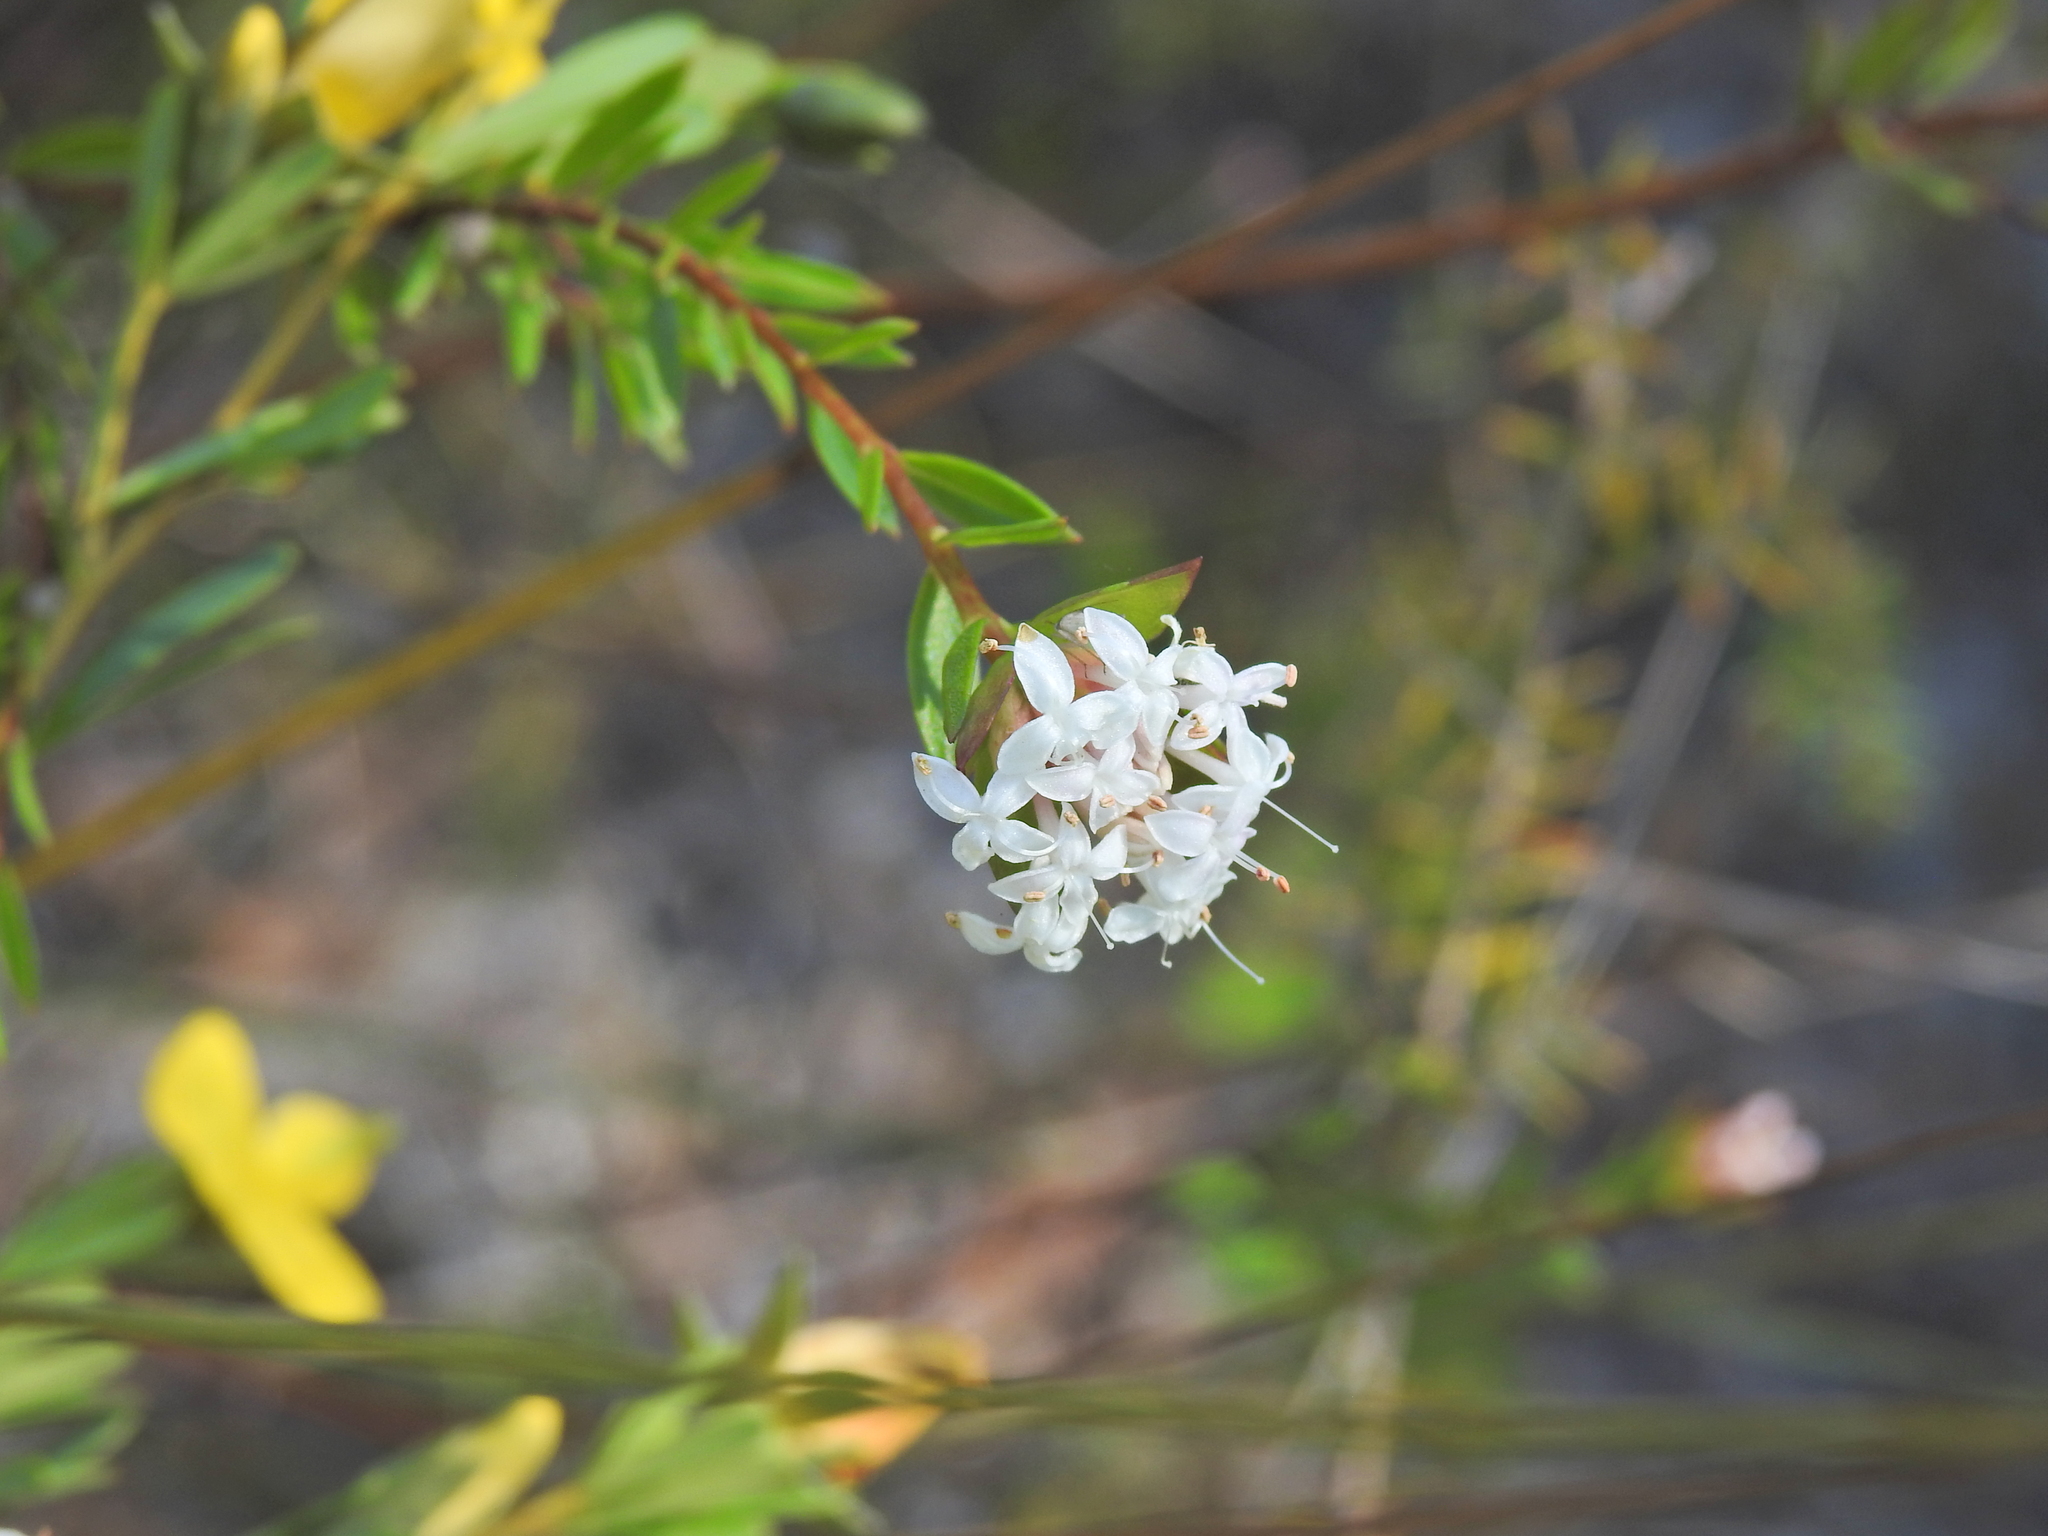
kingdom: Plantae
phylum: Tracheophyta
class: Magnoliopsida
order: Malvales
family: Thymelaeaceae
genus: Pimelea
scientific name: Pimelea linifolia
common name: Queen-of-the-bush
